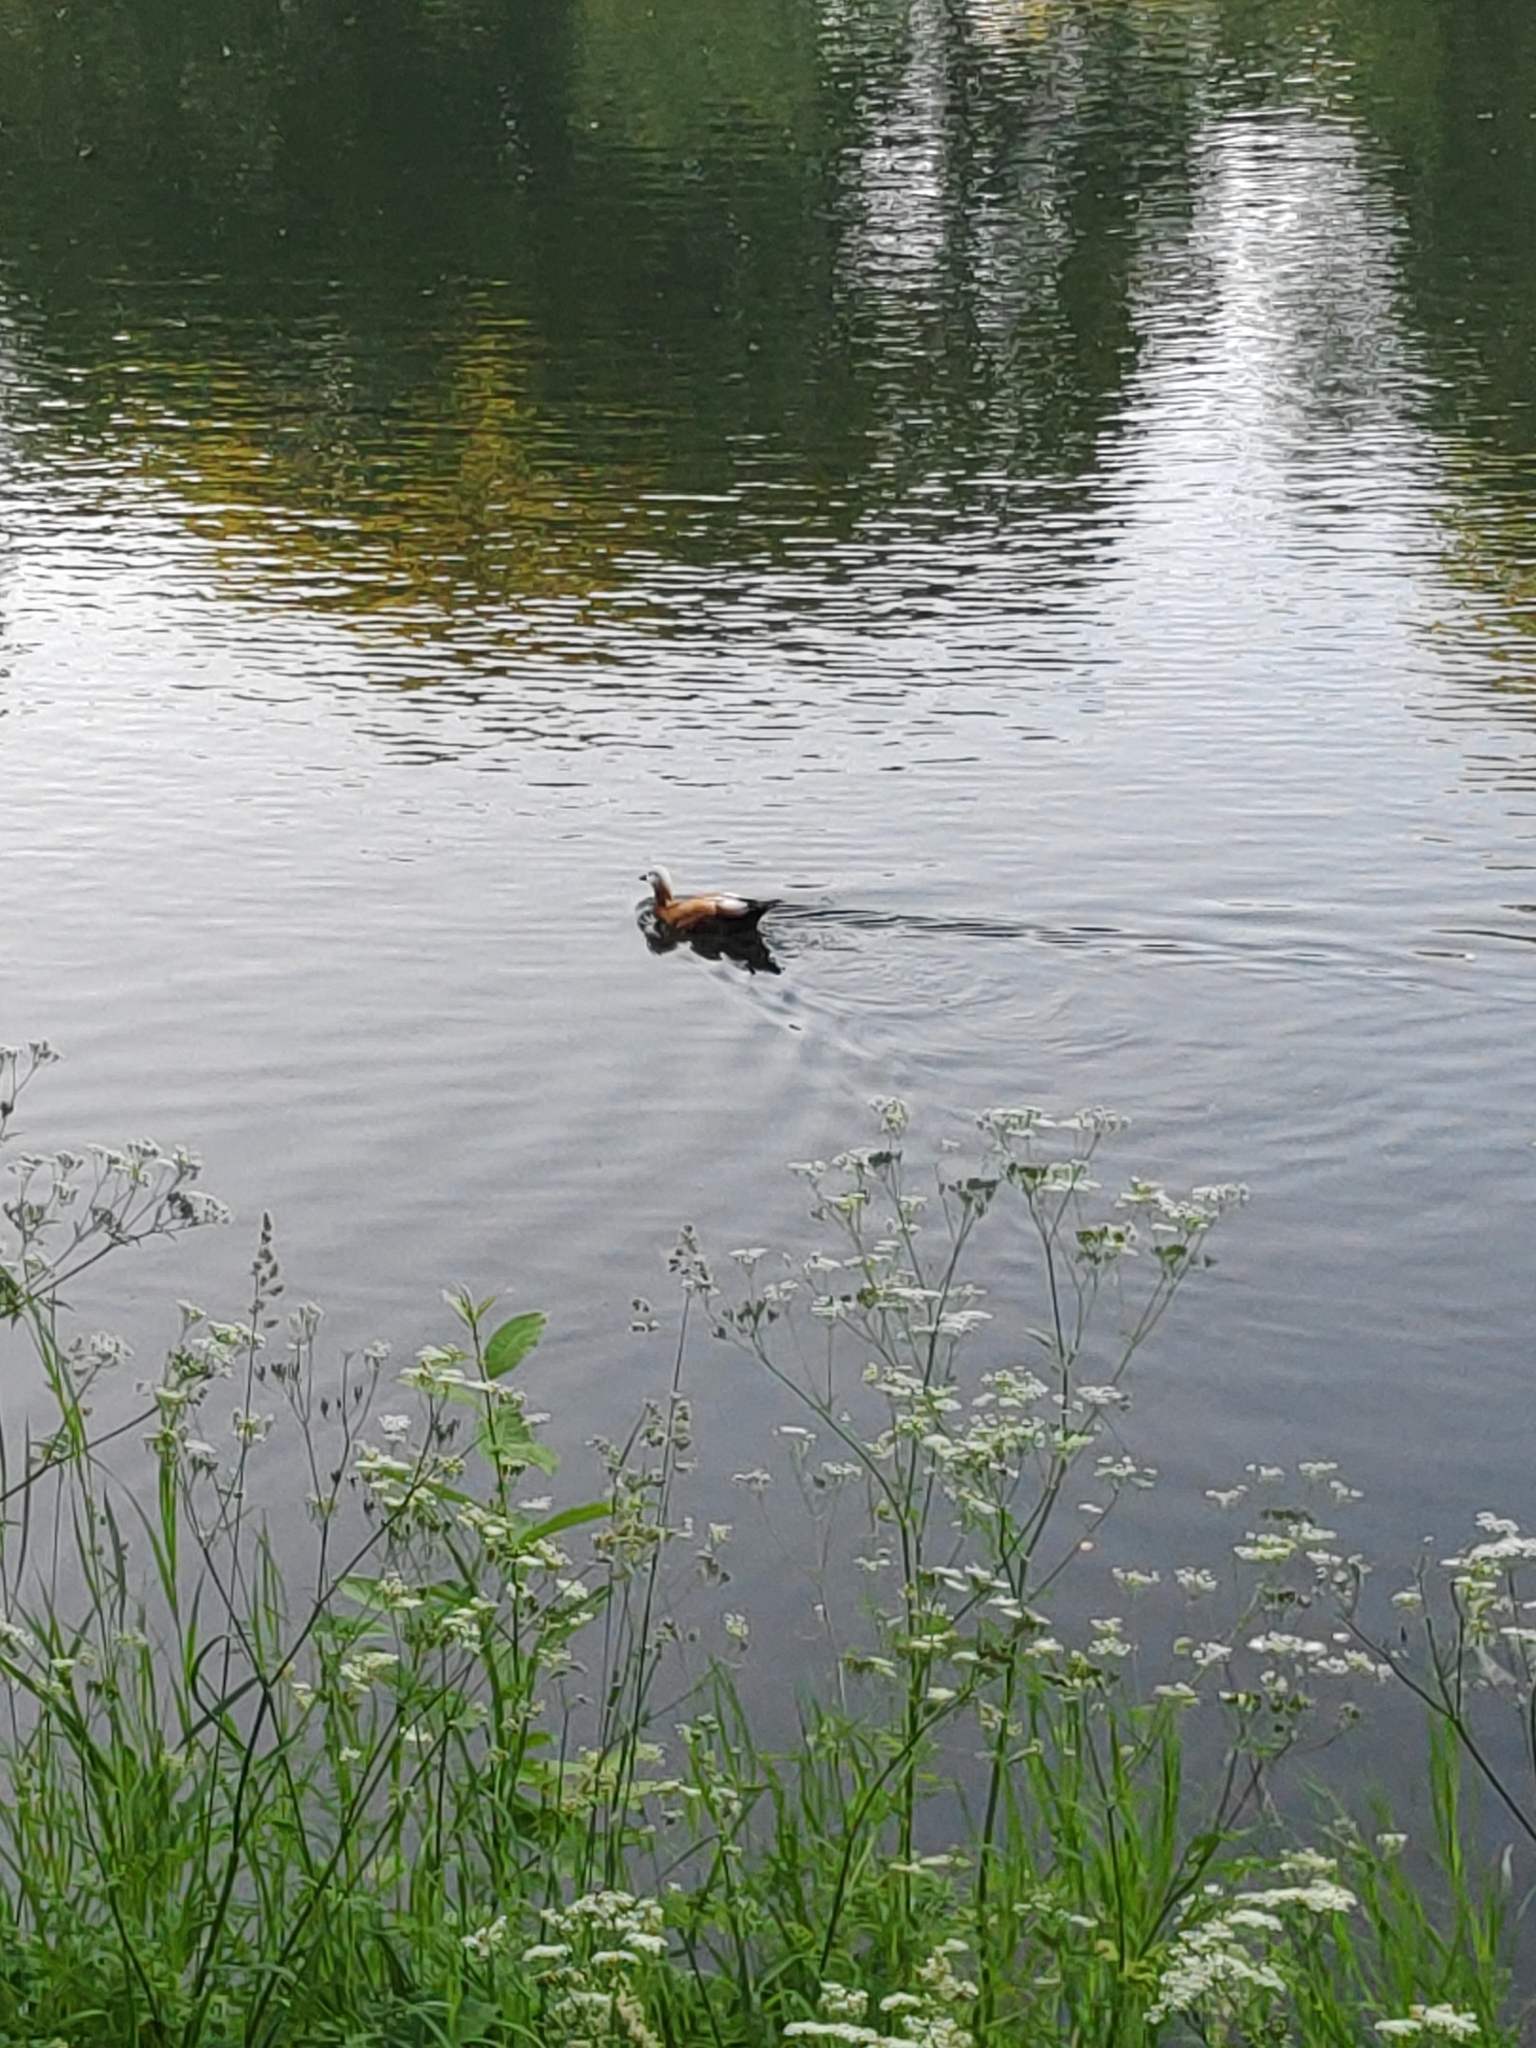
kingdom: Animalia
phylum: Chordata
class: Aves
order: Anseriformes
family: Anatidae
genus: Tadorna
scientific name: Tadorna ferruginea
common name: Ruddy shelduck
